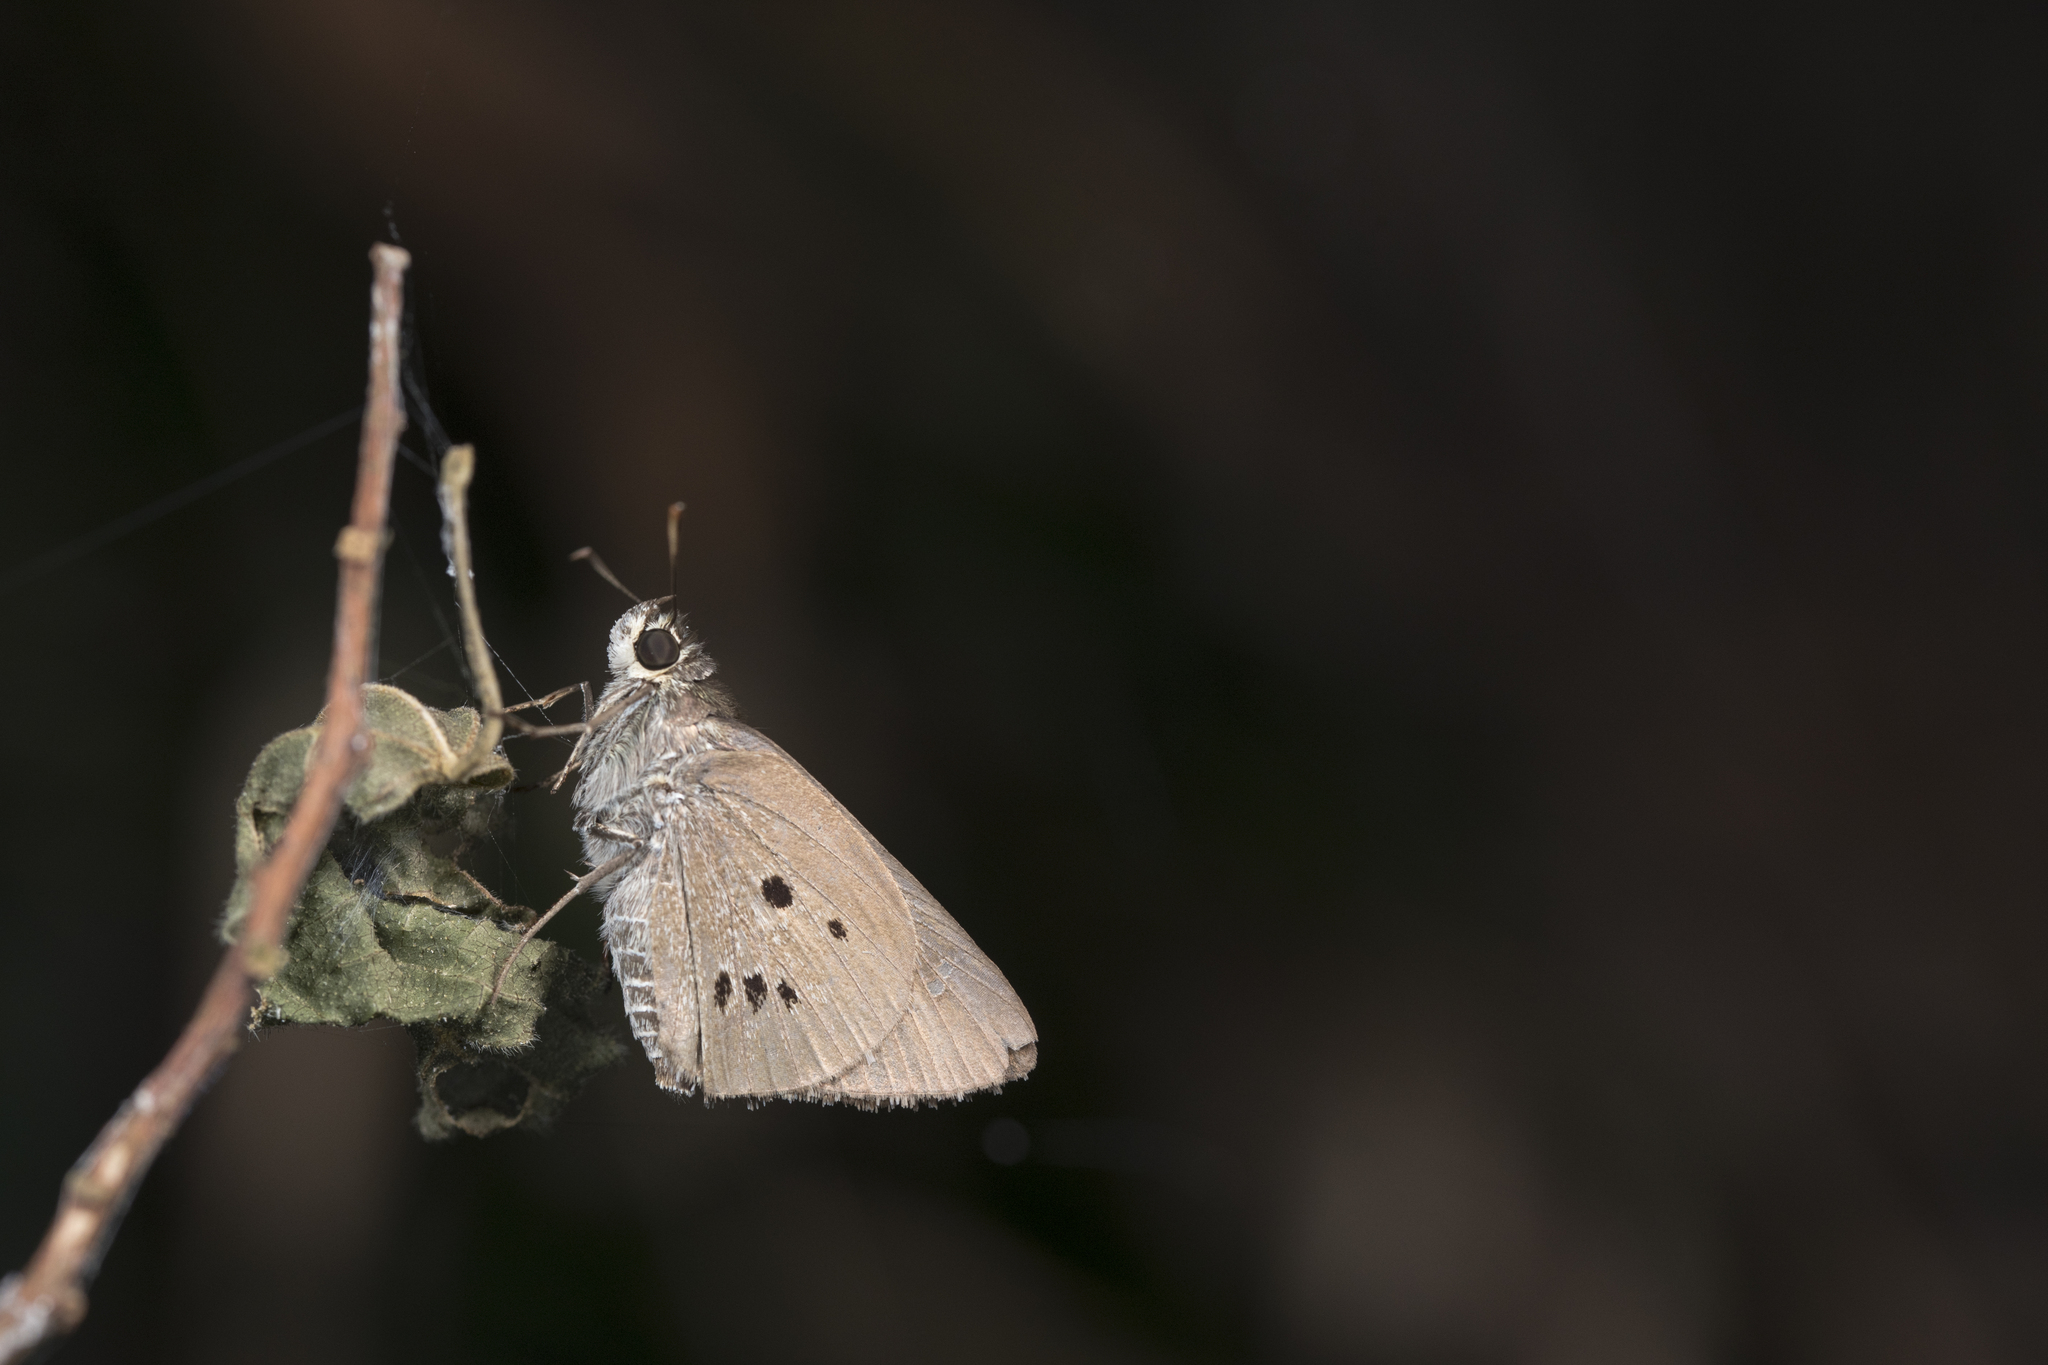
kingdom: Animalia
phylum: Arthropoda
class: Insecta
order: Lepidoptera
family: Hesperiidae
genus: Suastus
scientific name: Suastus gremius
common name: Indian palm bob
